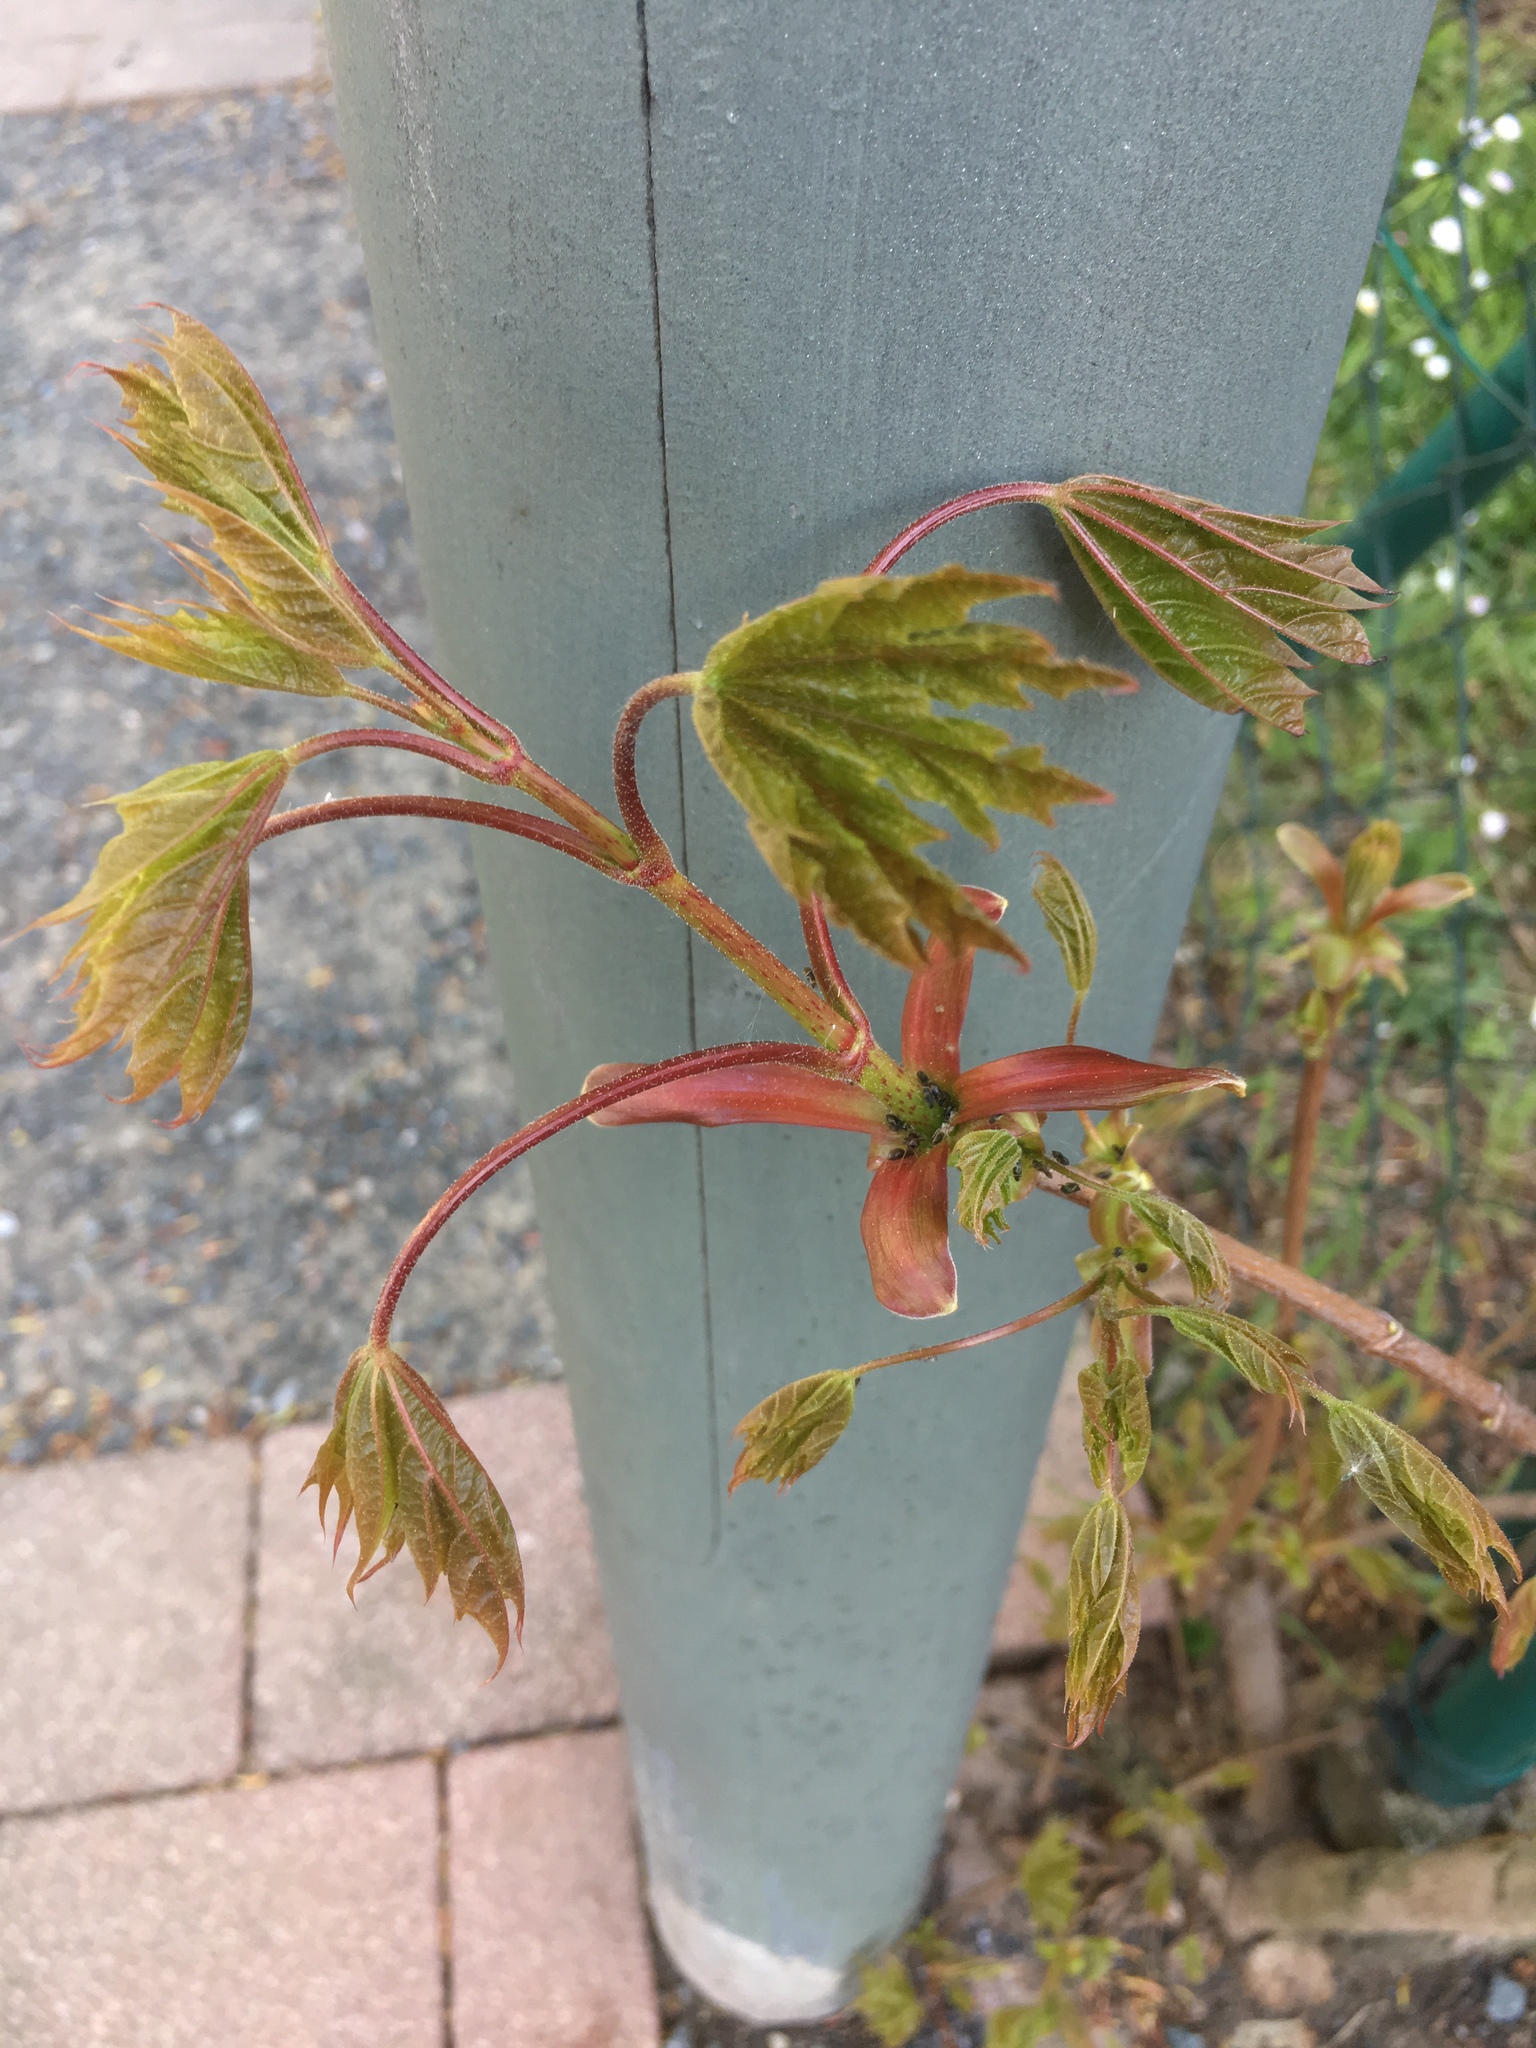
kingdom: Plantae
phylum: Tracheophyta
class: Magnoliopsida
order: Sapindales
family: Sapindaceae
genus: Acer
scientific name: Acer platanoides
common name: Norway maple
